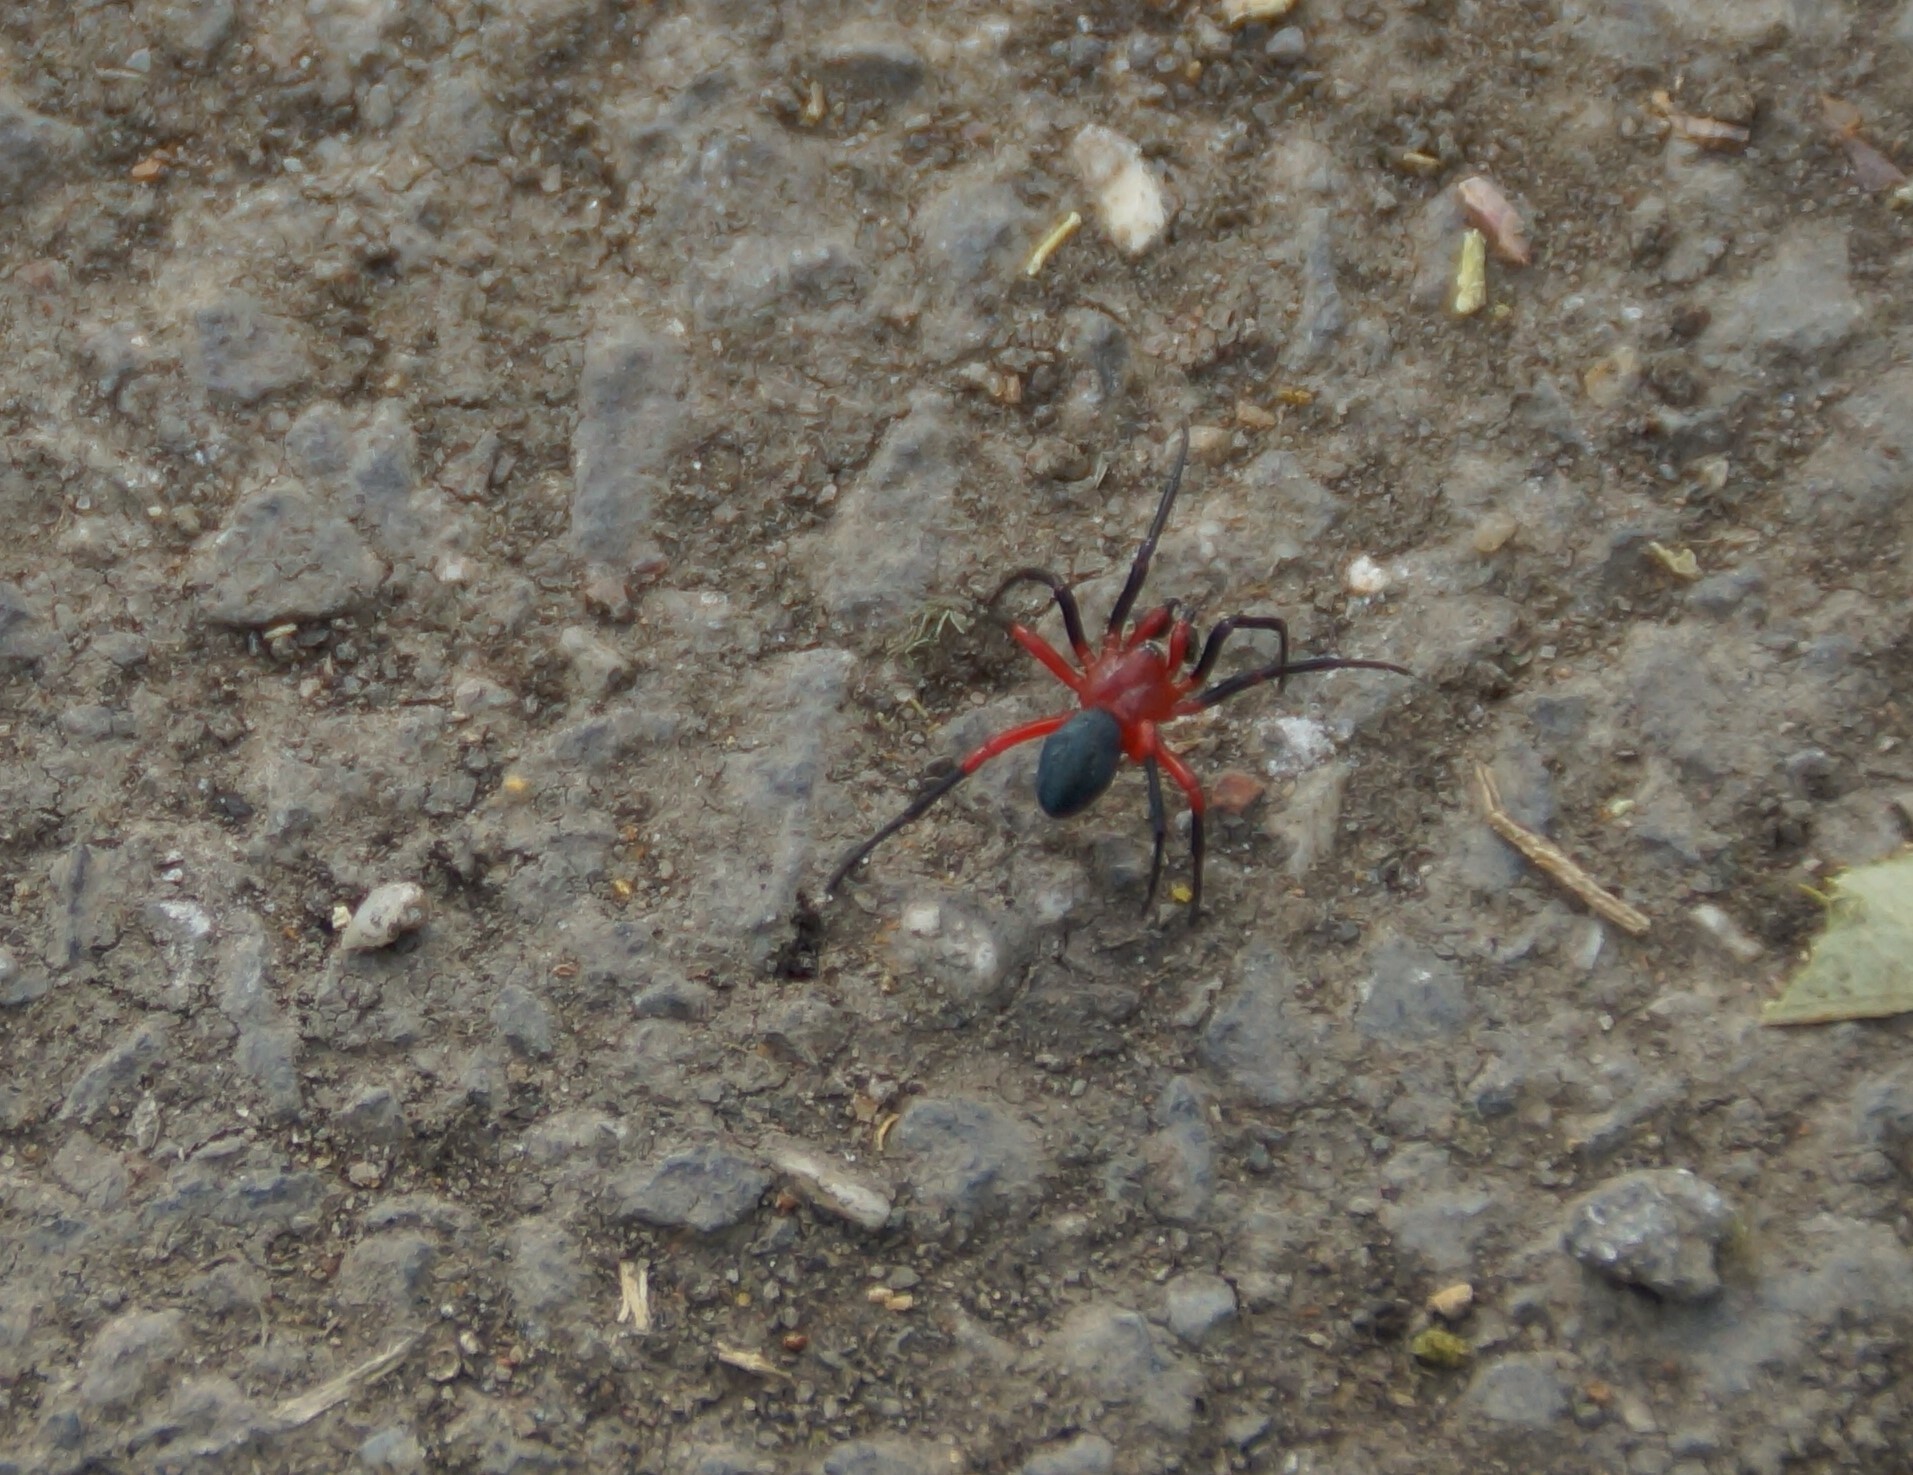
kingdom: Animalia
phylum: Arthropoda
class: Arachnida
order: Araneae
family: Nicodamidae
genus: Nicodamus
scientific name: Nicodamus peregrinus
